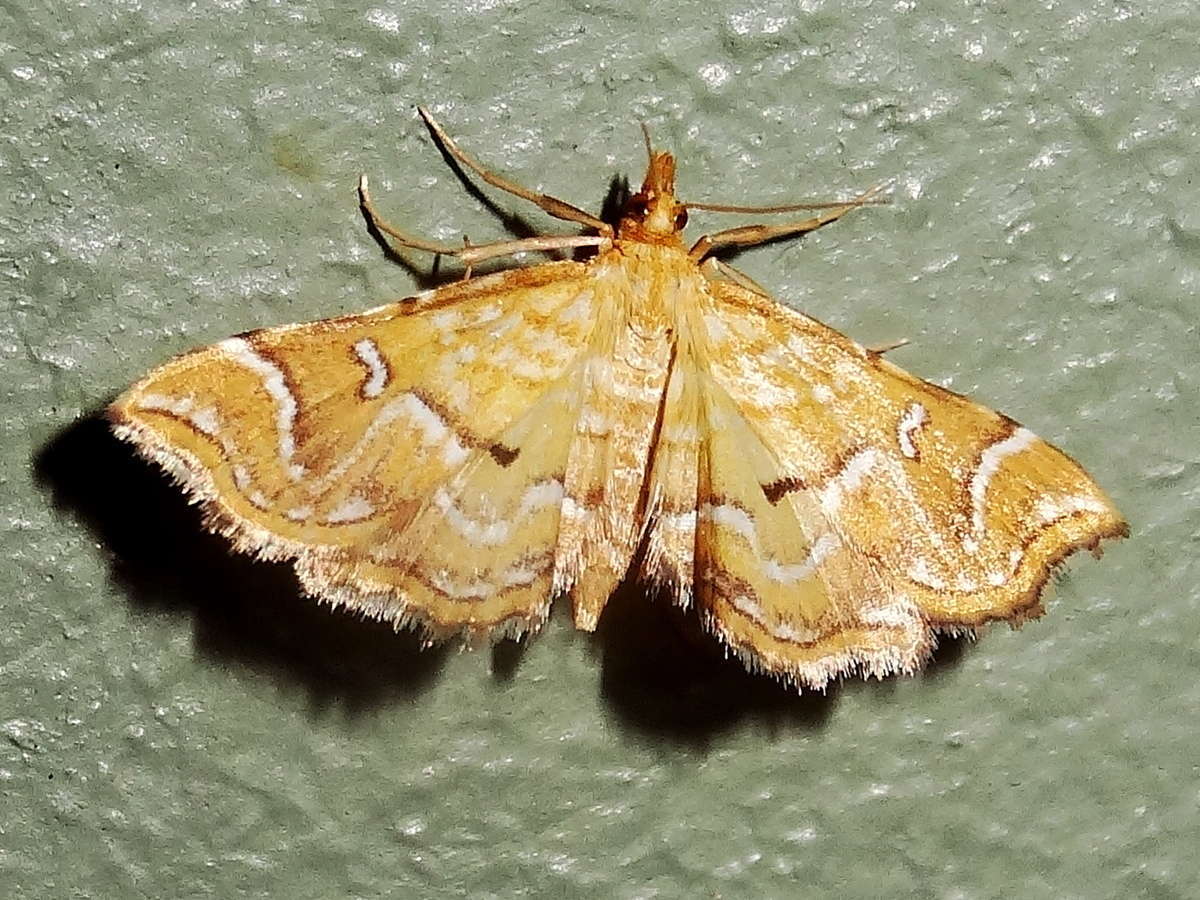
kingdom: Animalia
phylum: Arthropoda
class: Insecta
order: Lepidoptera
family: Pyralidae
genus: Musotima
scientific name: Musotima ochropteralis
